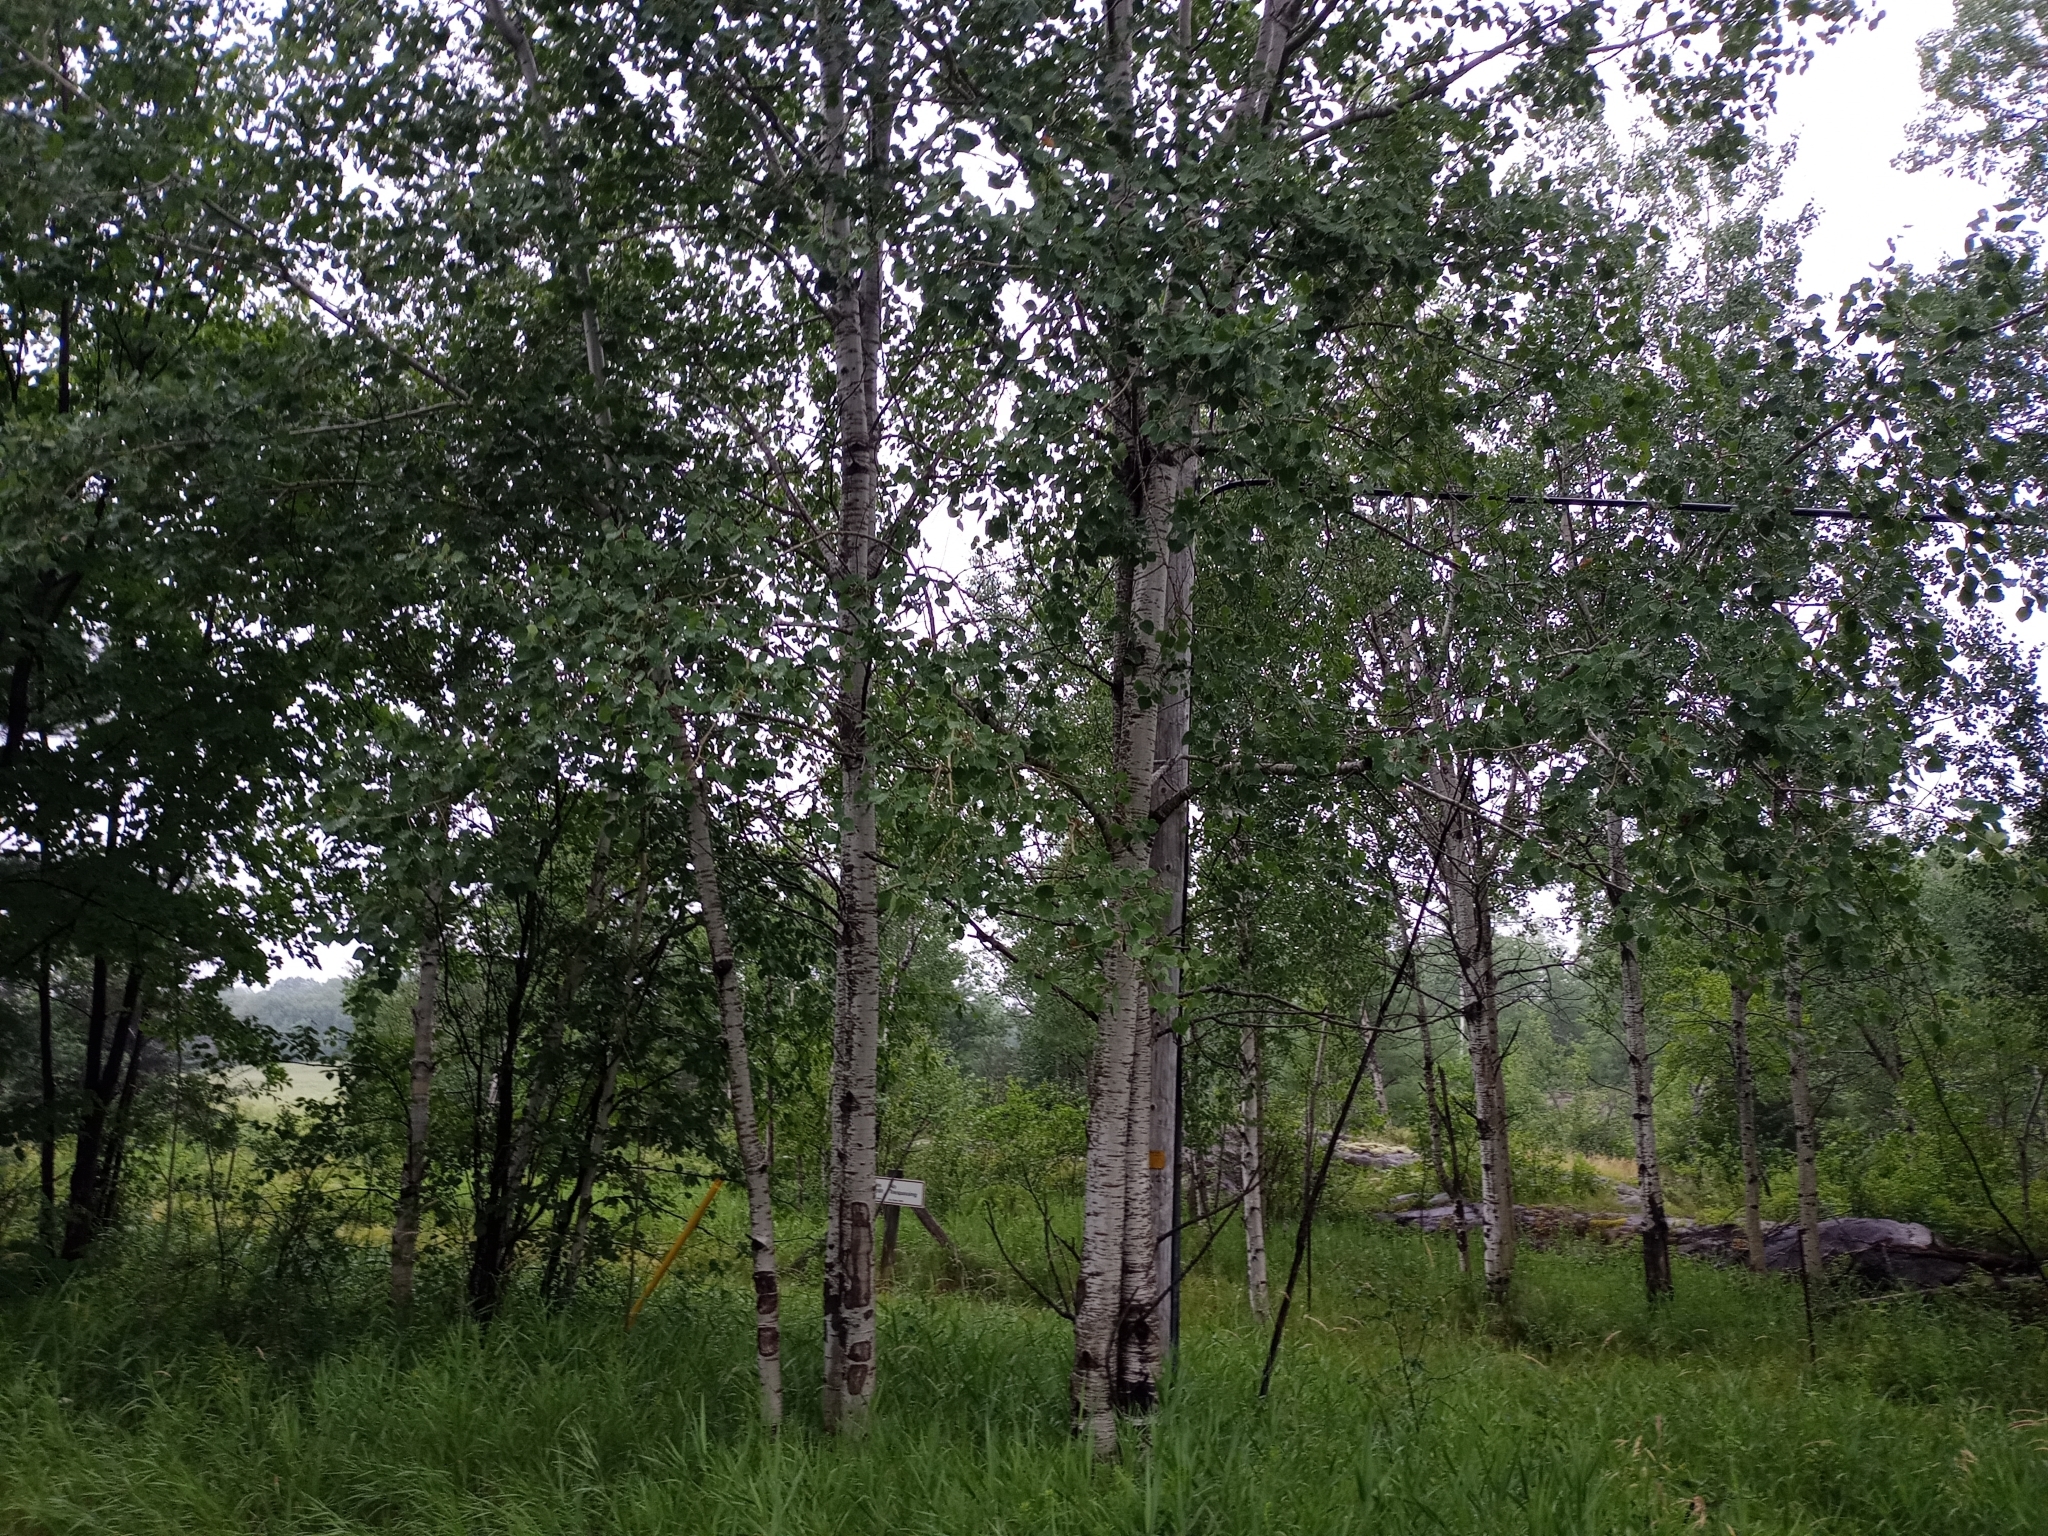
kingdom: Plantae
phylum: Tracheophyta
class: Magnoliopsida
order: Malpighiales
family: Salicaceae
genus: Populus
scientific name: Populus tremuloides
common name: Quaking aspen
